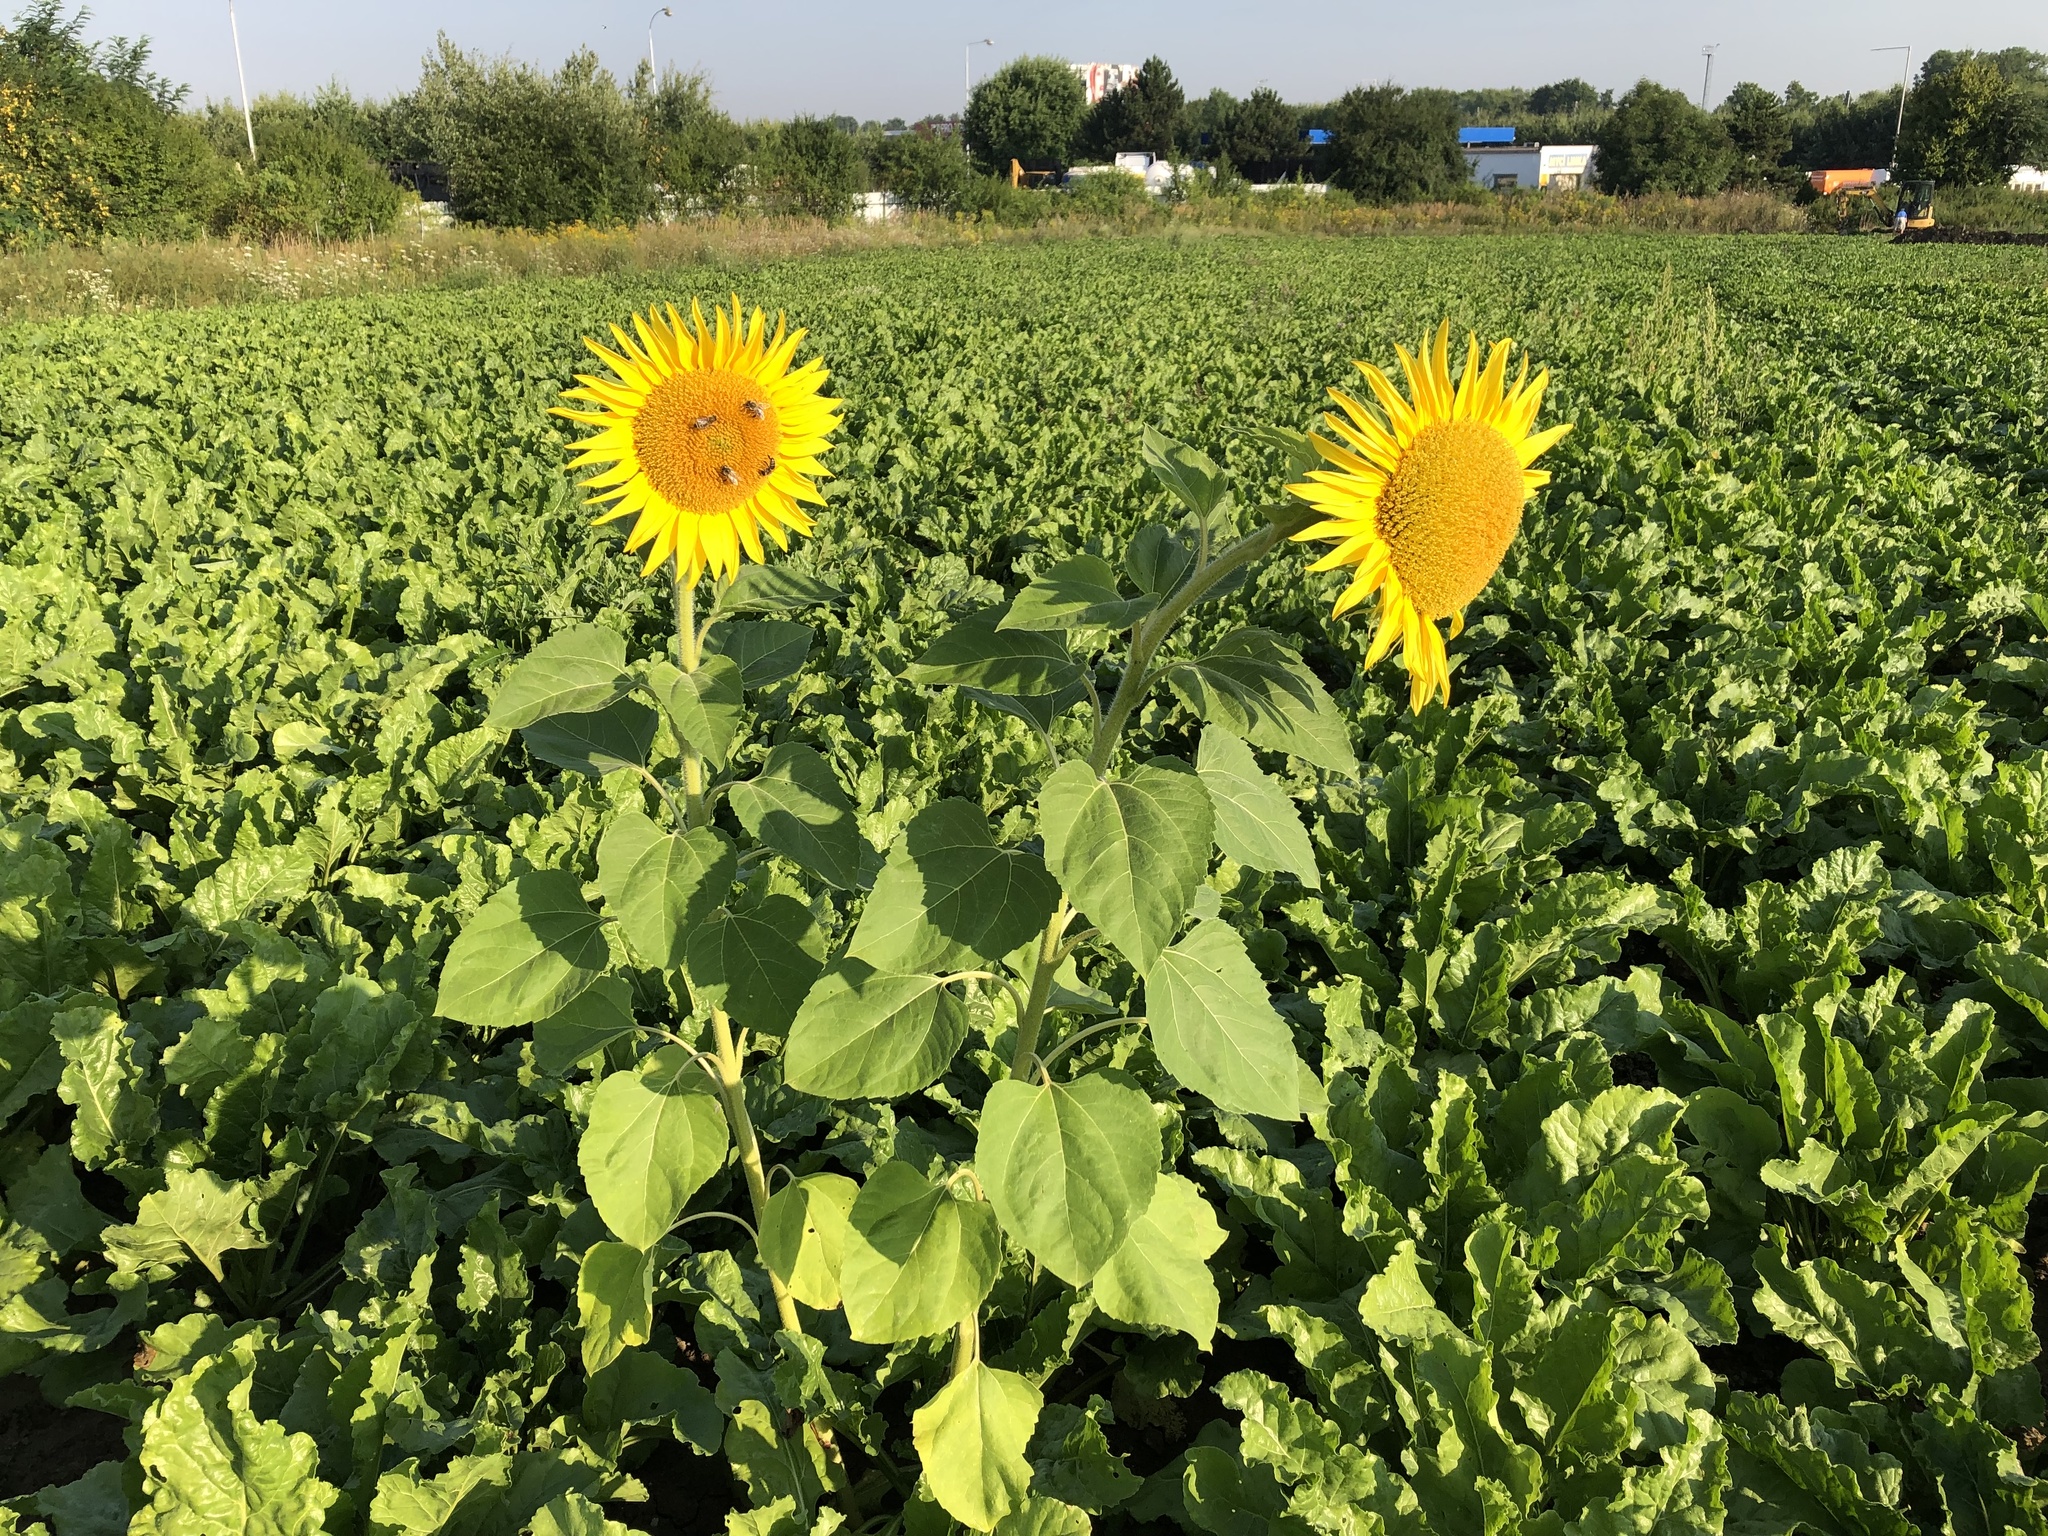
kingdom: Plantae
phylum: Tracheophyta
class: Magnoliopsida
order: Asterales
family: Asteraceae
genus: Helianthus
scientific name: Helianthus annuus
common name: Sunflower
